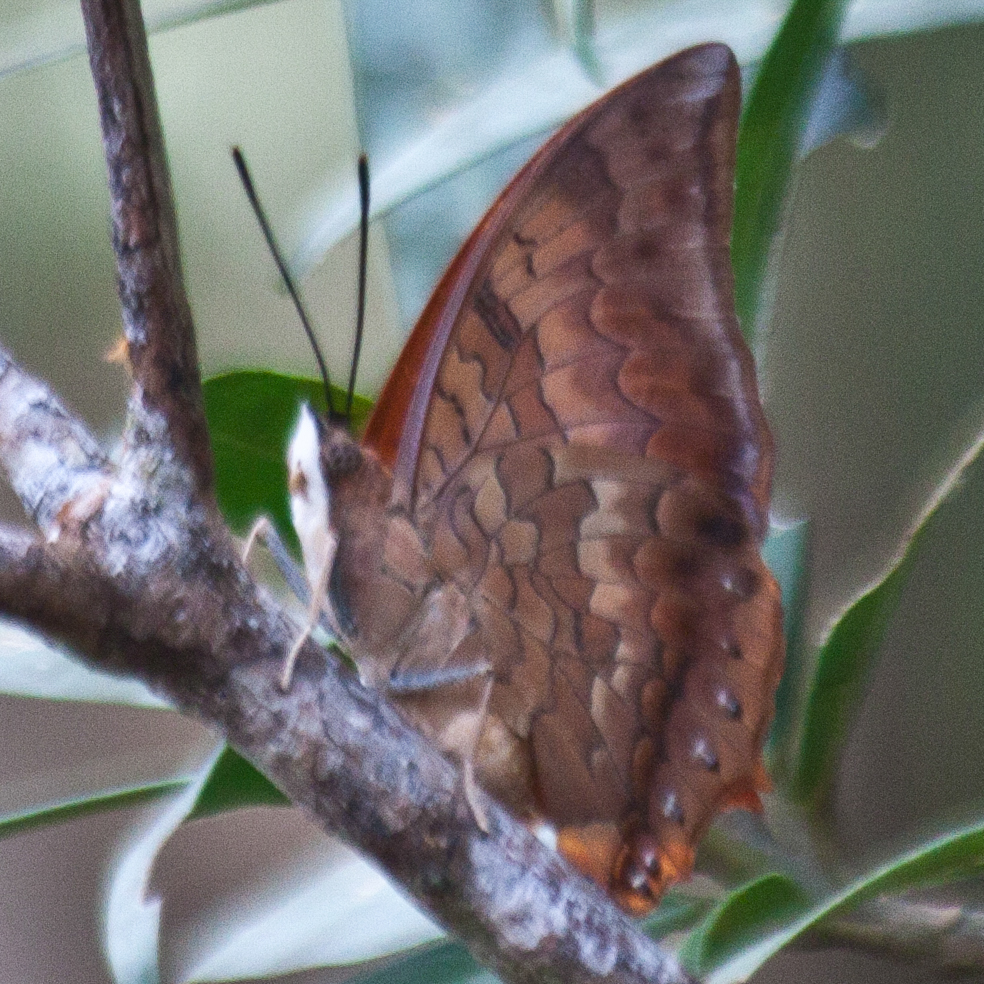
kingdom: Animalia
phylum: Arthropoda
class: Insecta
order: Lepidoptera
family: Nymphalidae
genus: Charaxes
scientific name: Charaxes bernardus
